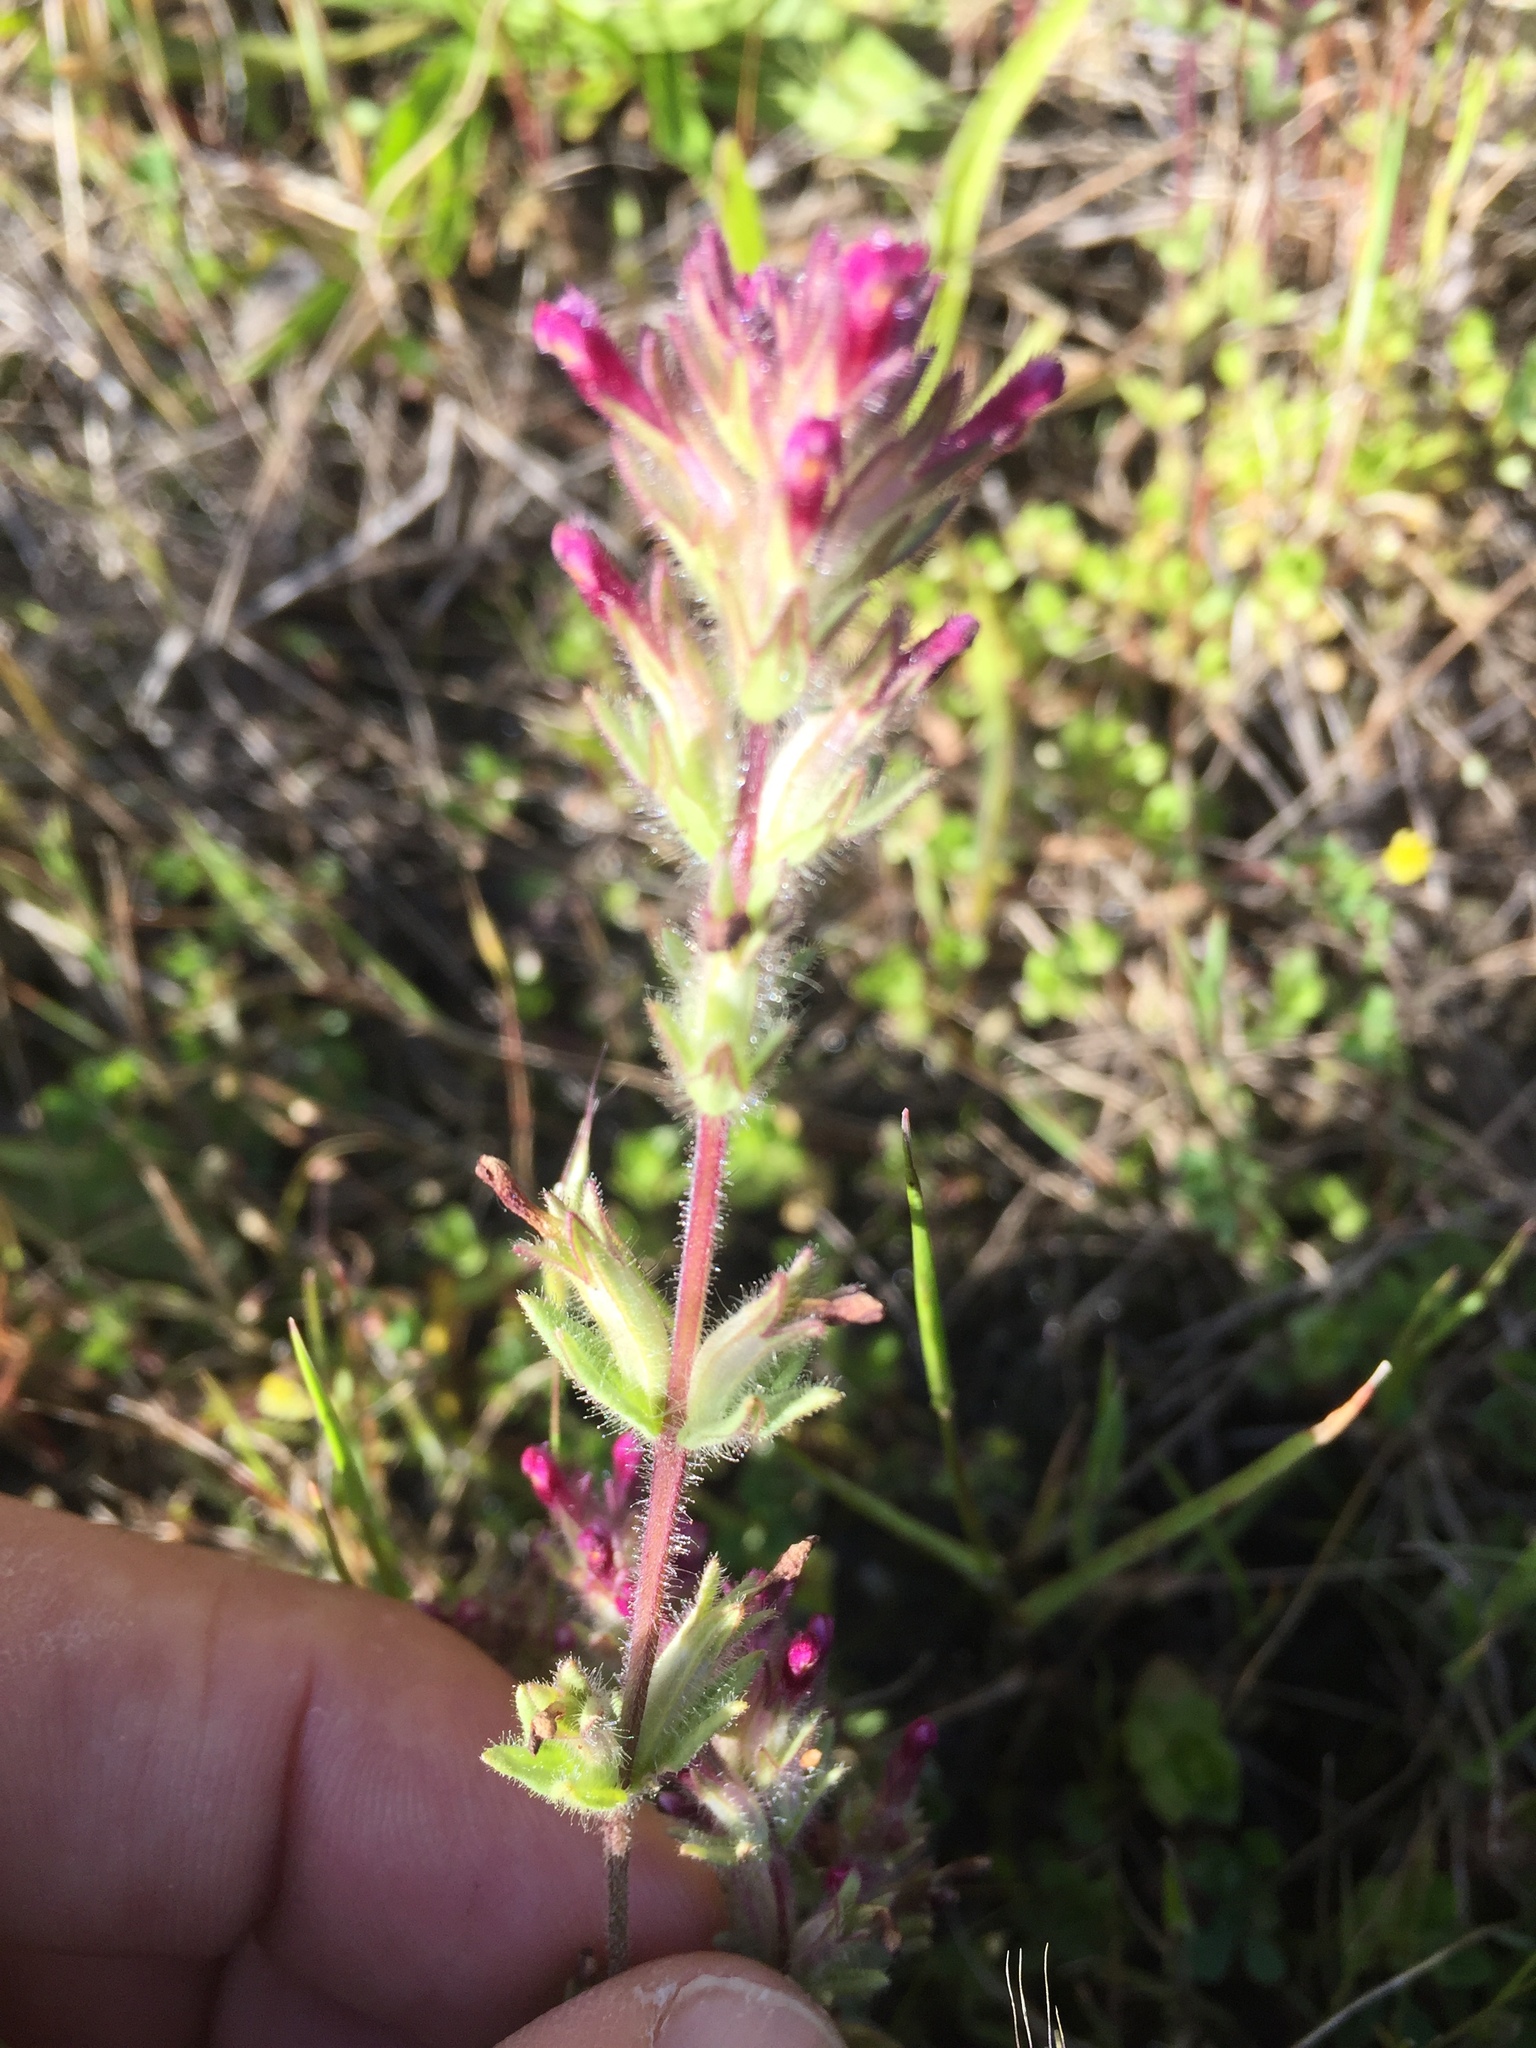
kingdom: Plantae
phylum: Tracheophyta
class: Magnoliopsida
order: Lamiales
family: Orobanchaceae
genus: Parentucellia
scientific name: Parentucellia latifolia
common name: Broadleaf glandweed
